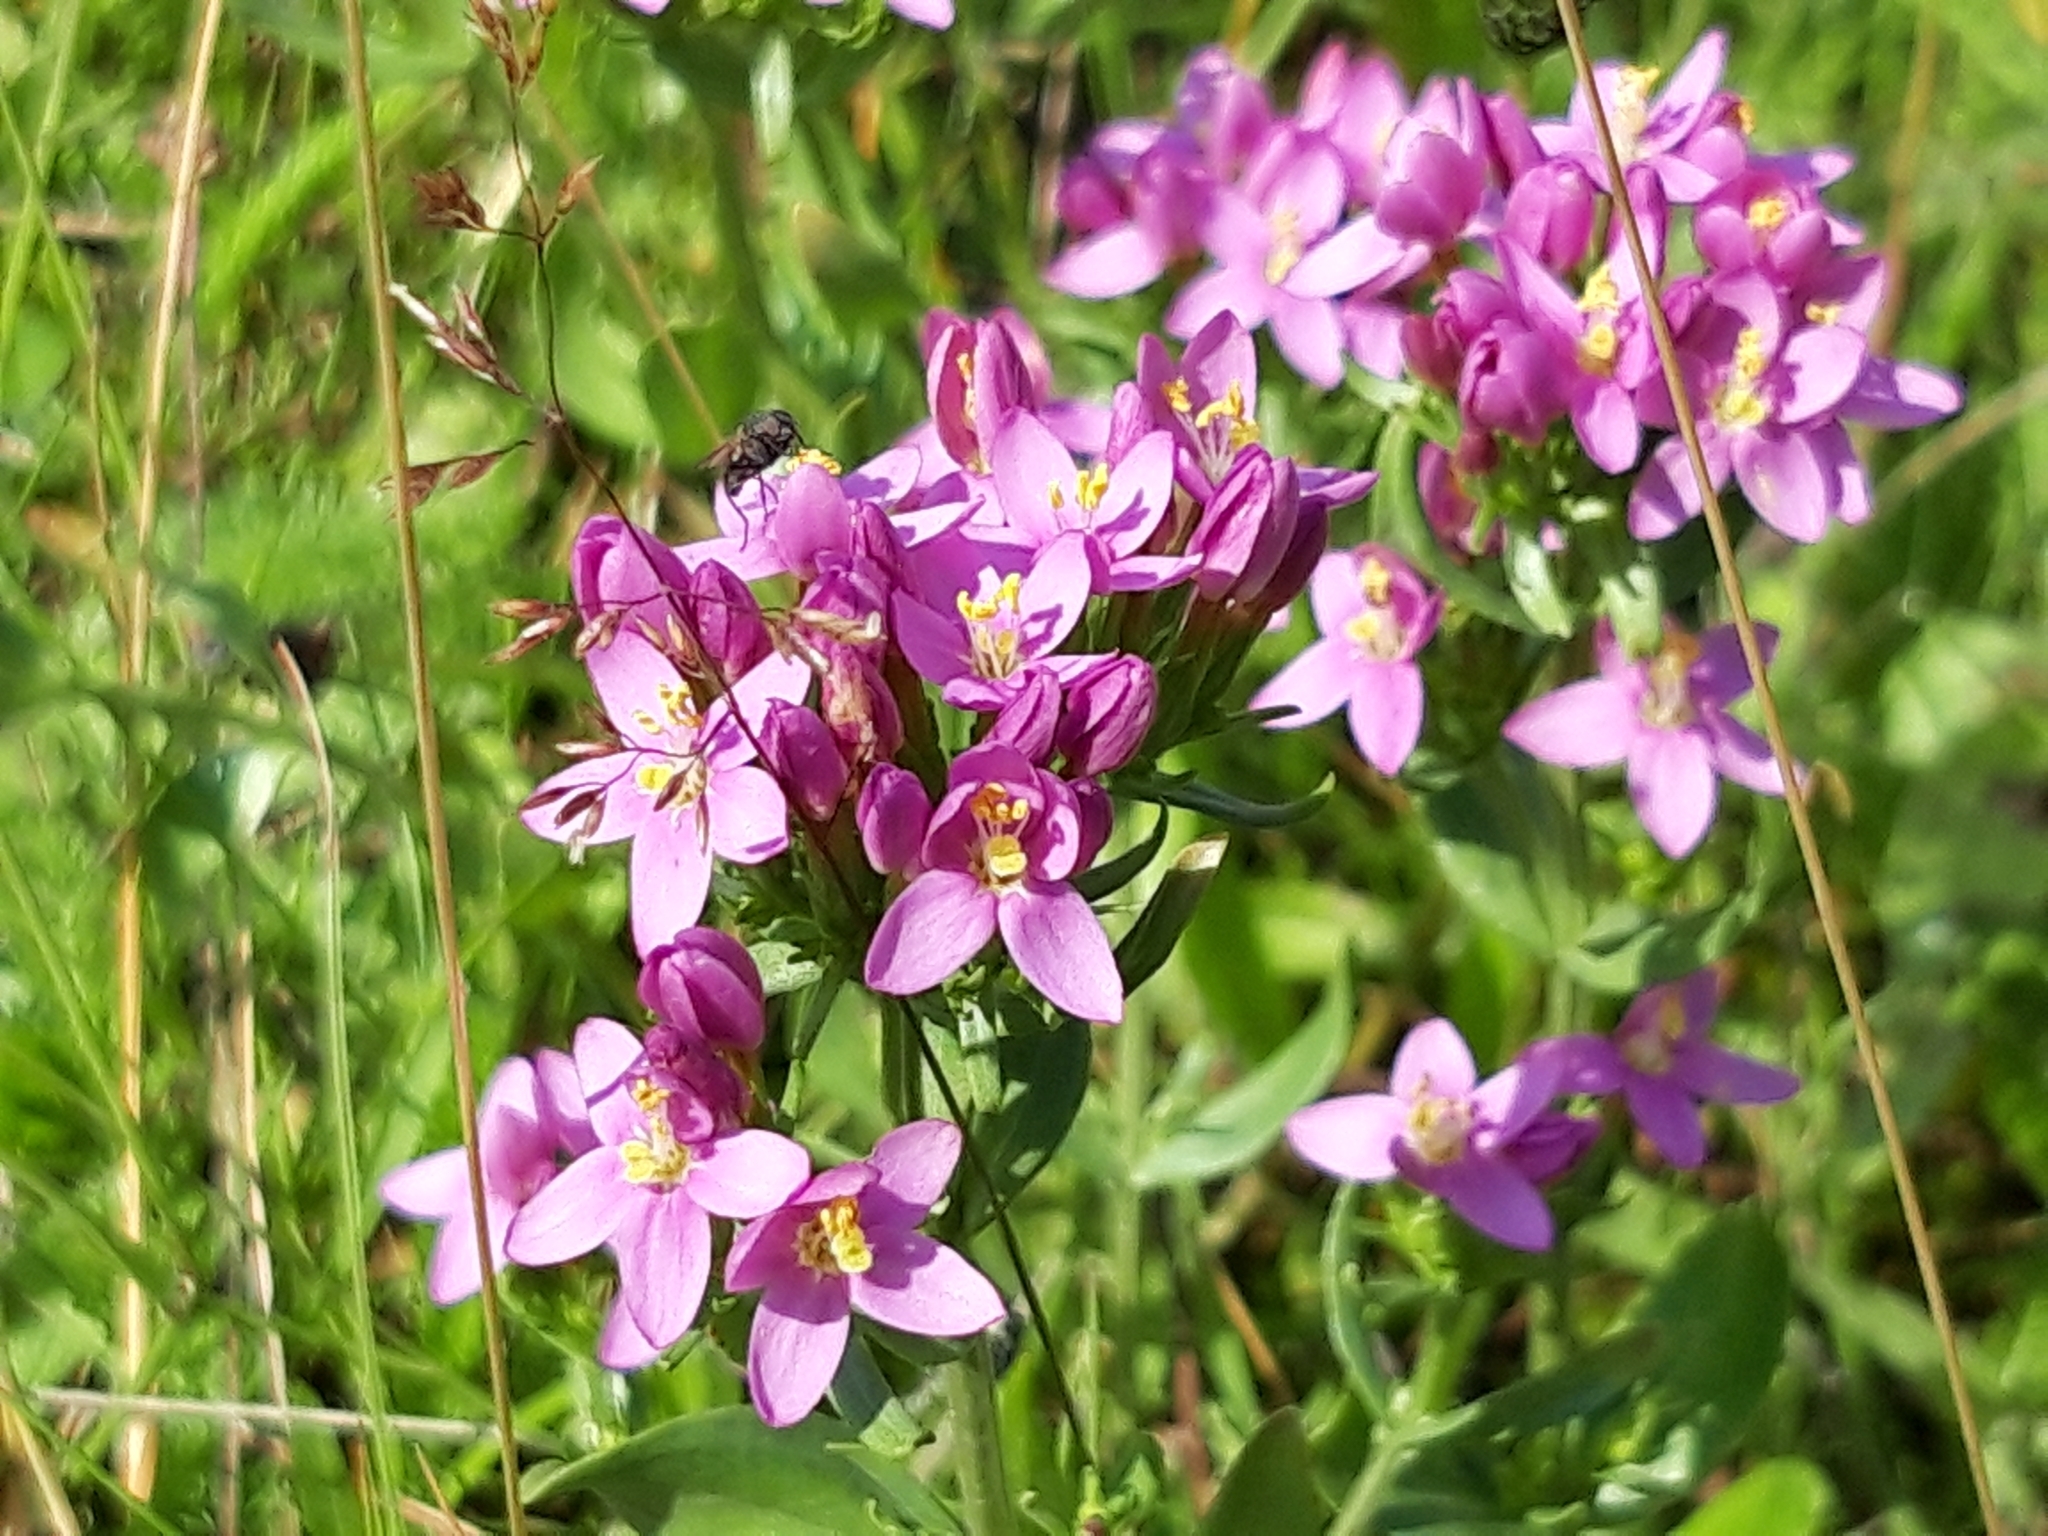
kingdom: Plantae
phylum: Tracheophyta
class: Magnoliopsida
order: Gentianales
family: Gentianaceae
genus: Centaurium
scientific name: Centaurium erythraea
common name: Common centaury
